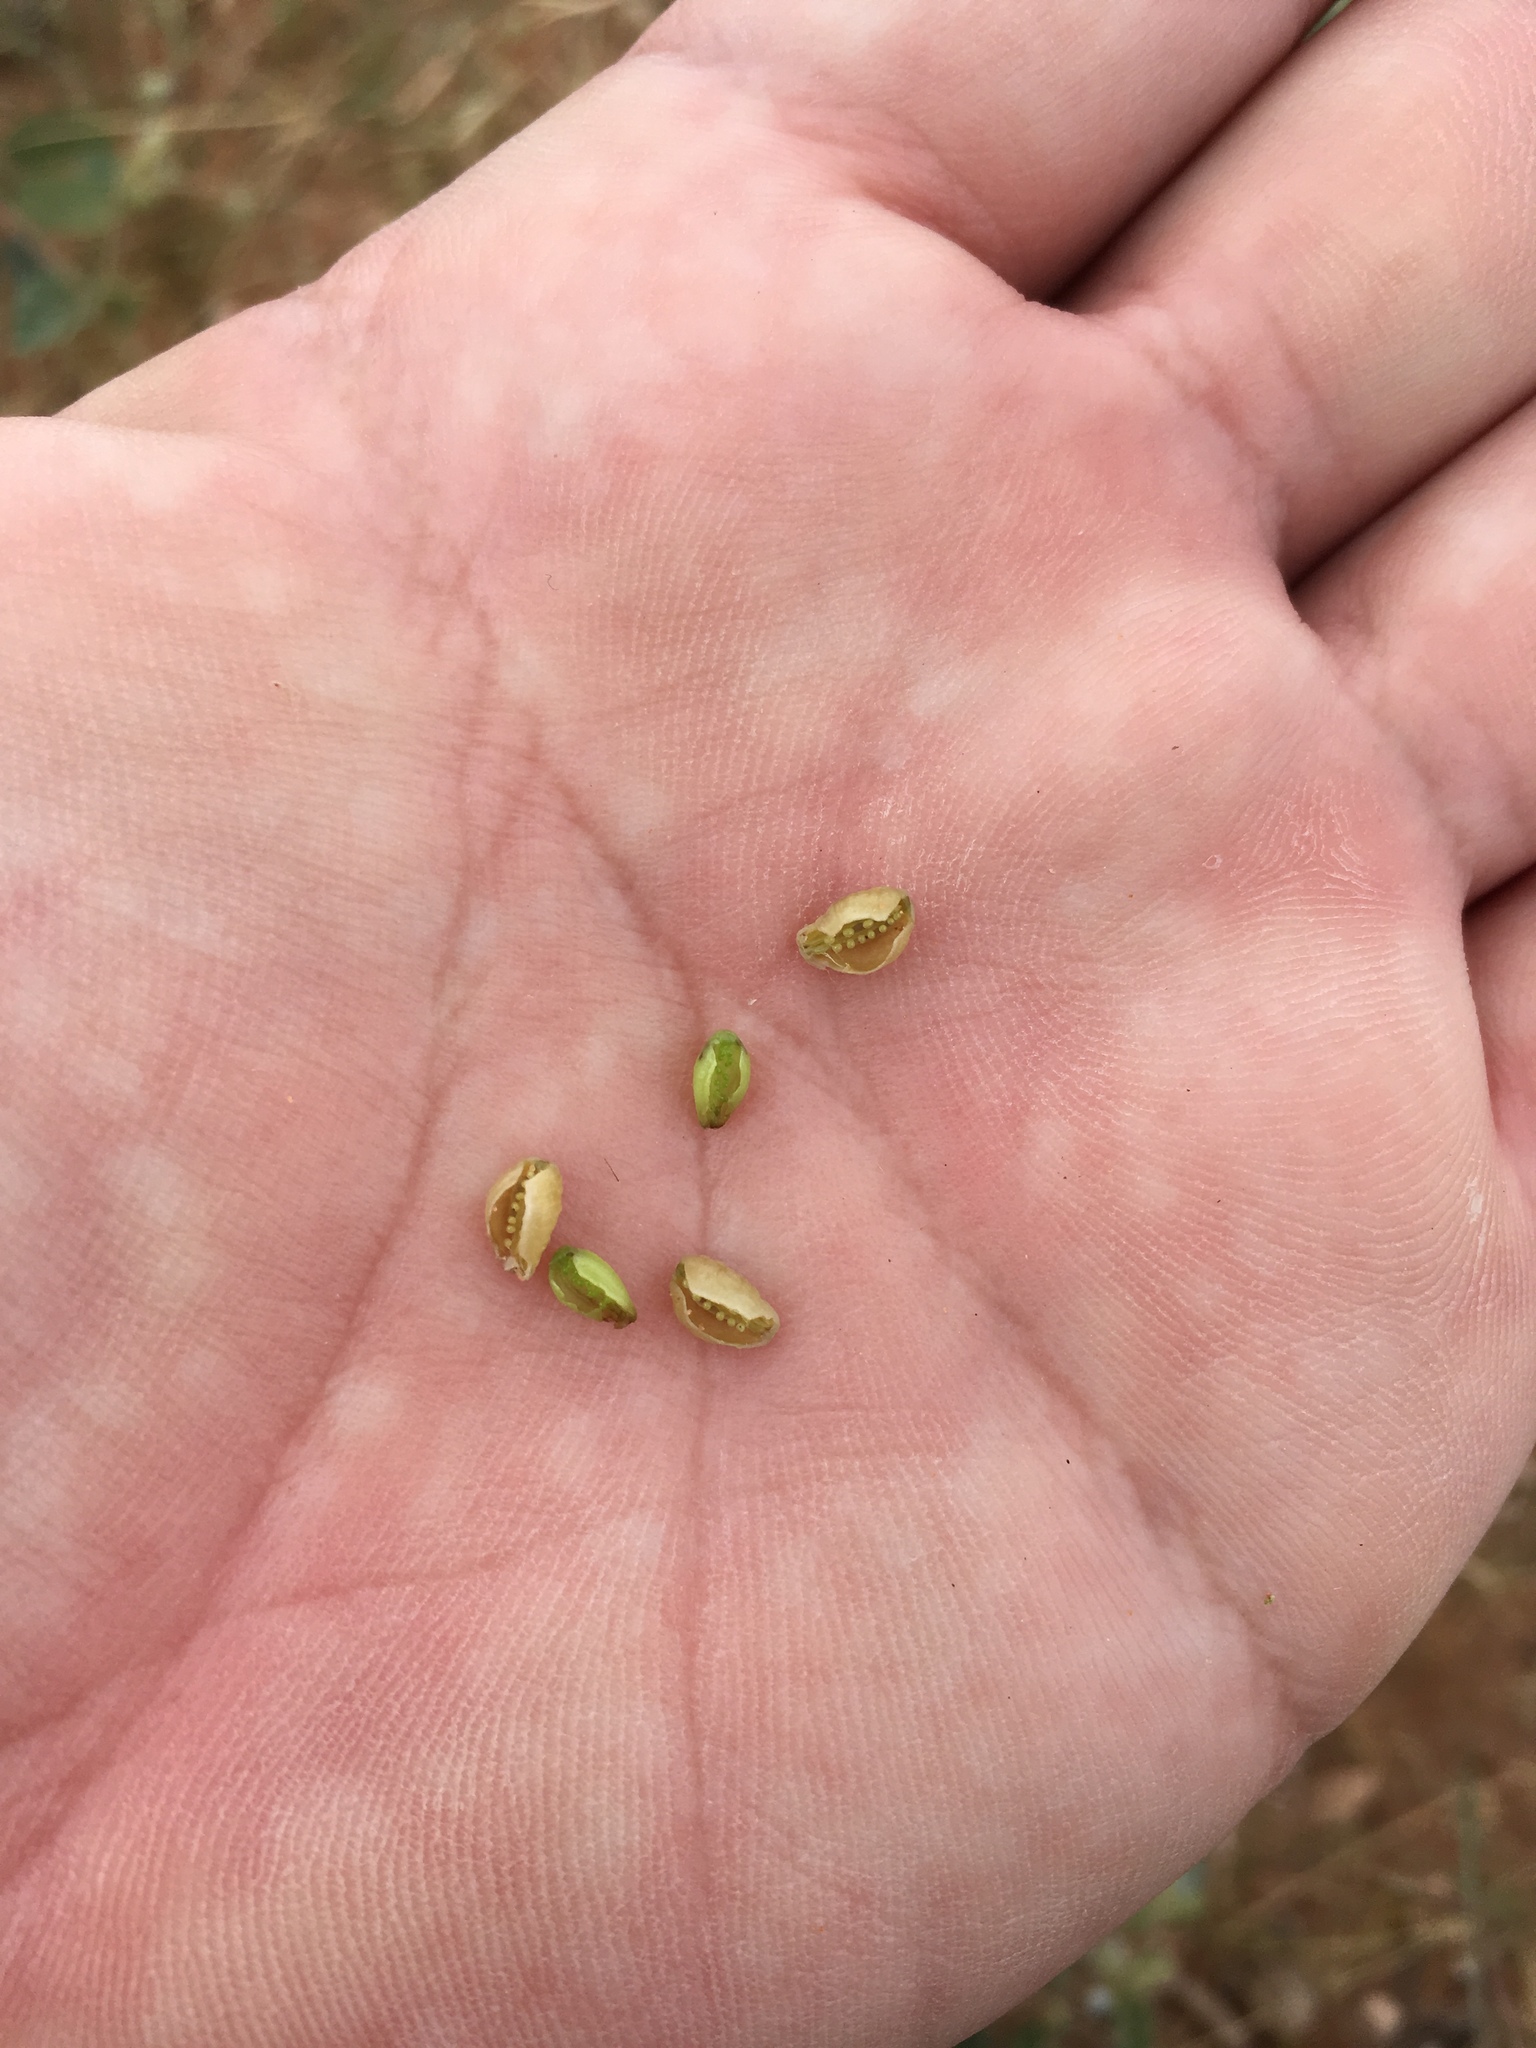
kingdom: Plantae
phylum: Tracheophyta
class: Magnoliopsida
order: Caryophyllales
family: Nyctaginaceae
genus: Allionia
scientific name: Allionia incarnata
